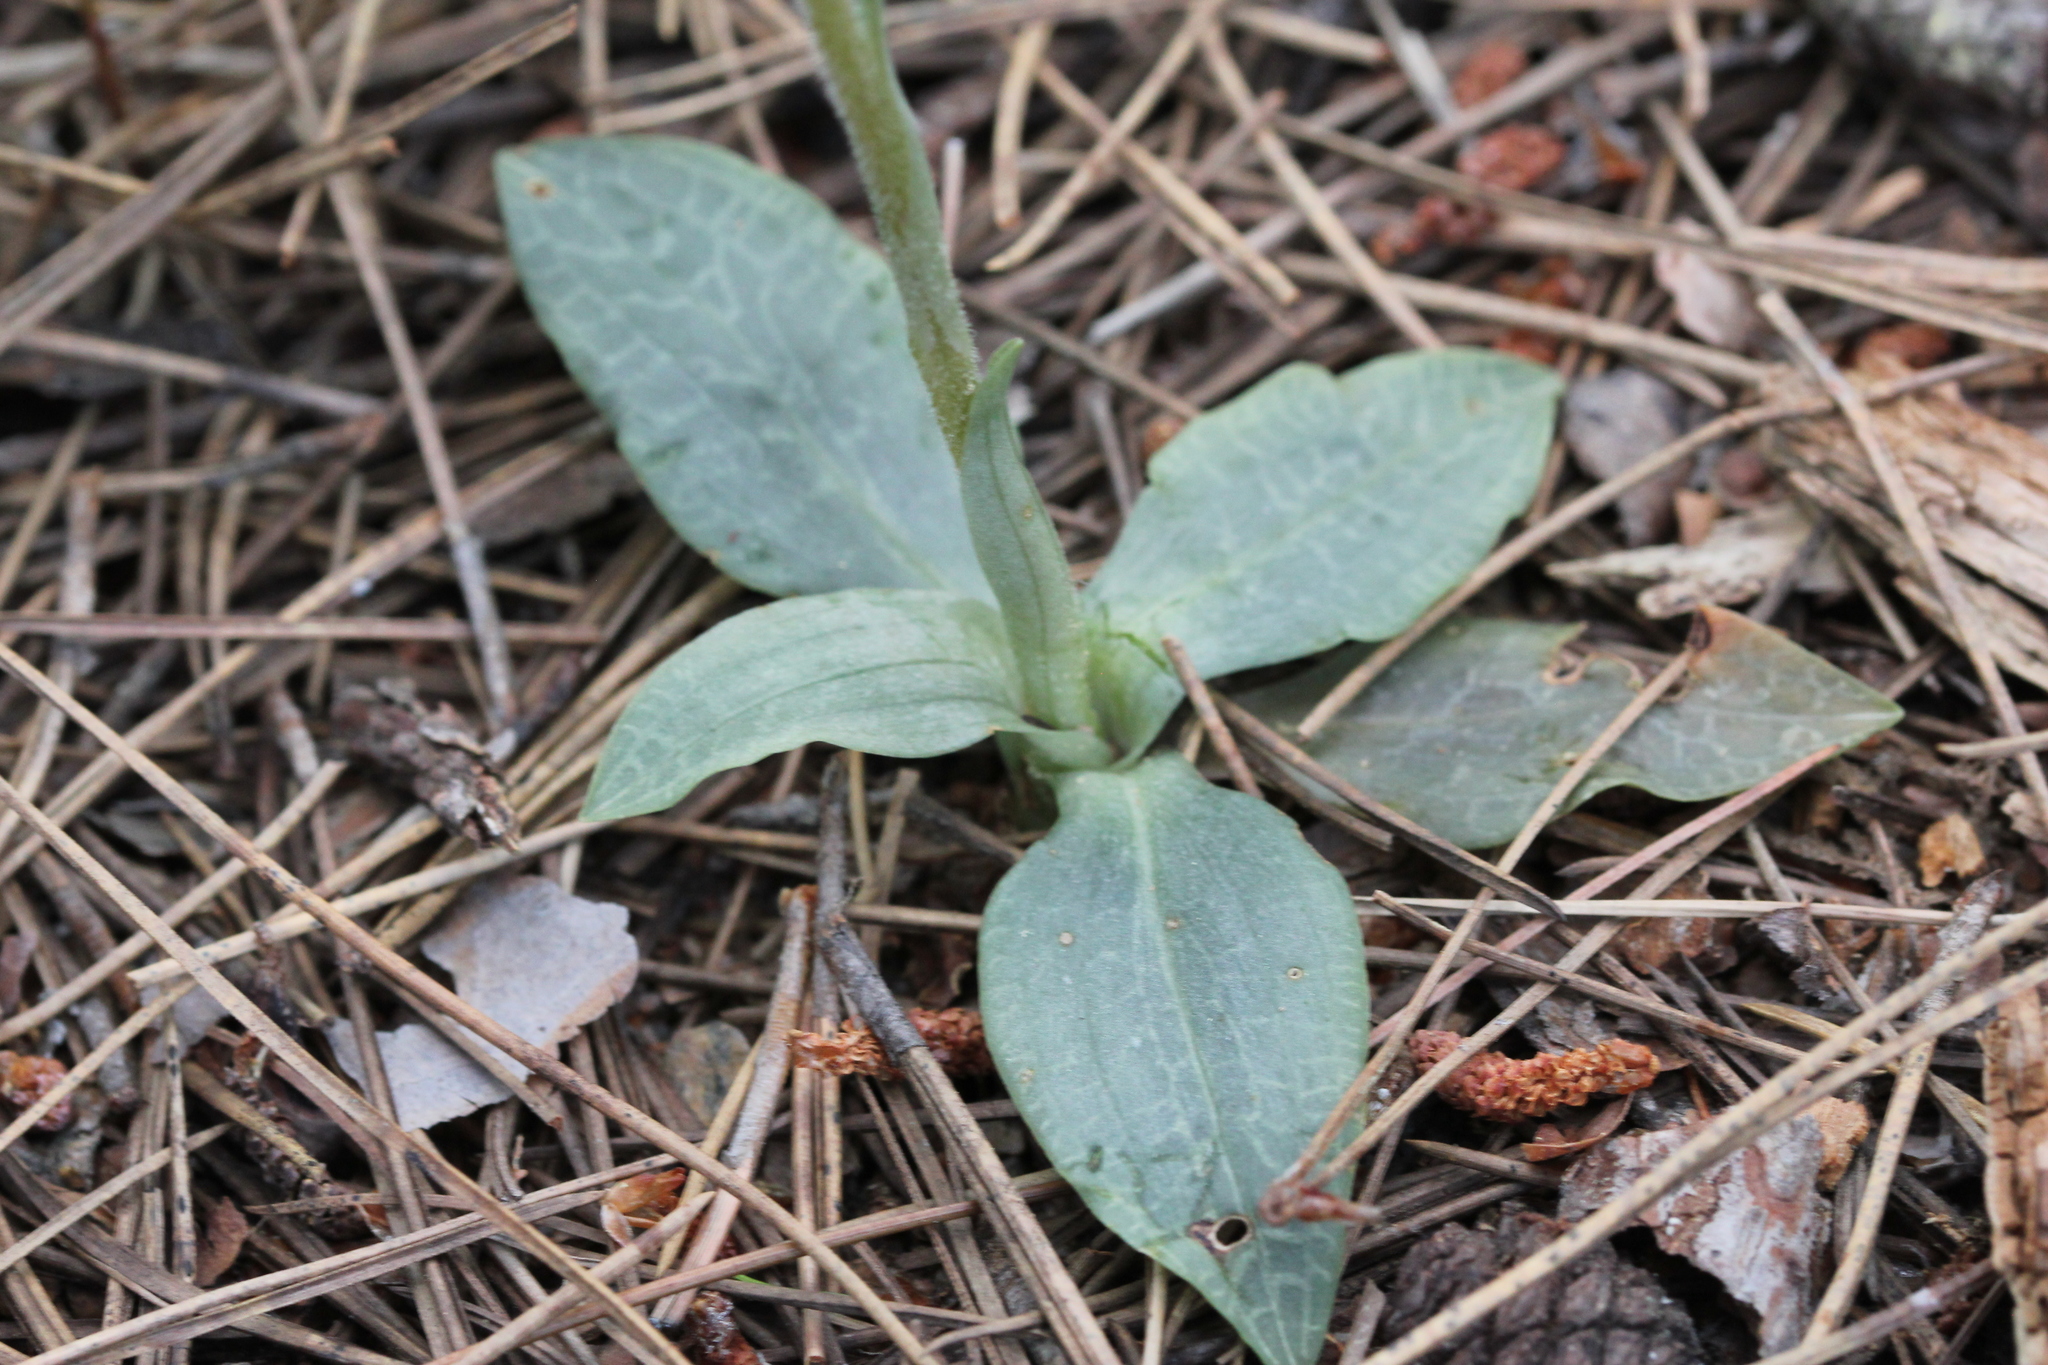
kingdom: Plantae
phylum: Tracheophyta
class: Liliopsida
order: Asparagales
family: Orchidaceae
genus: Goodyera
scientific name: Goodyera tesselata
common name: Checkered rattlesnake-plantain
